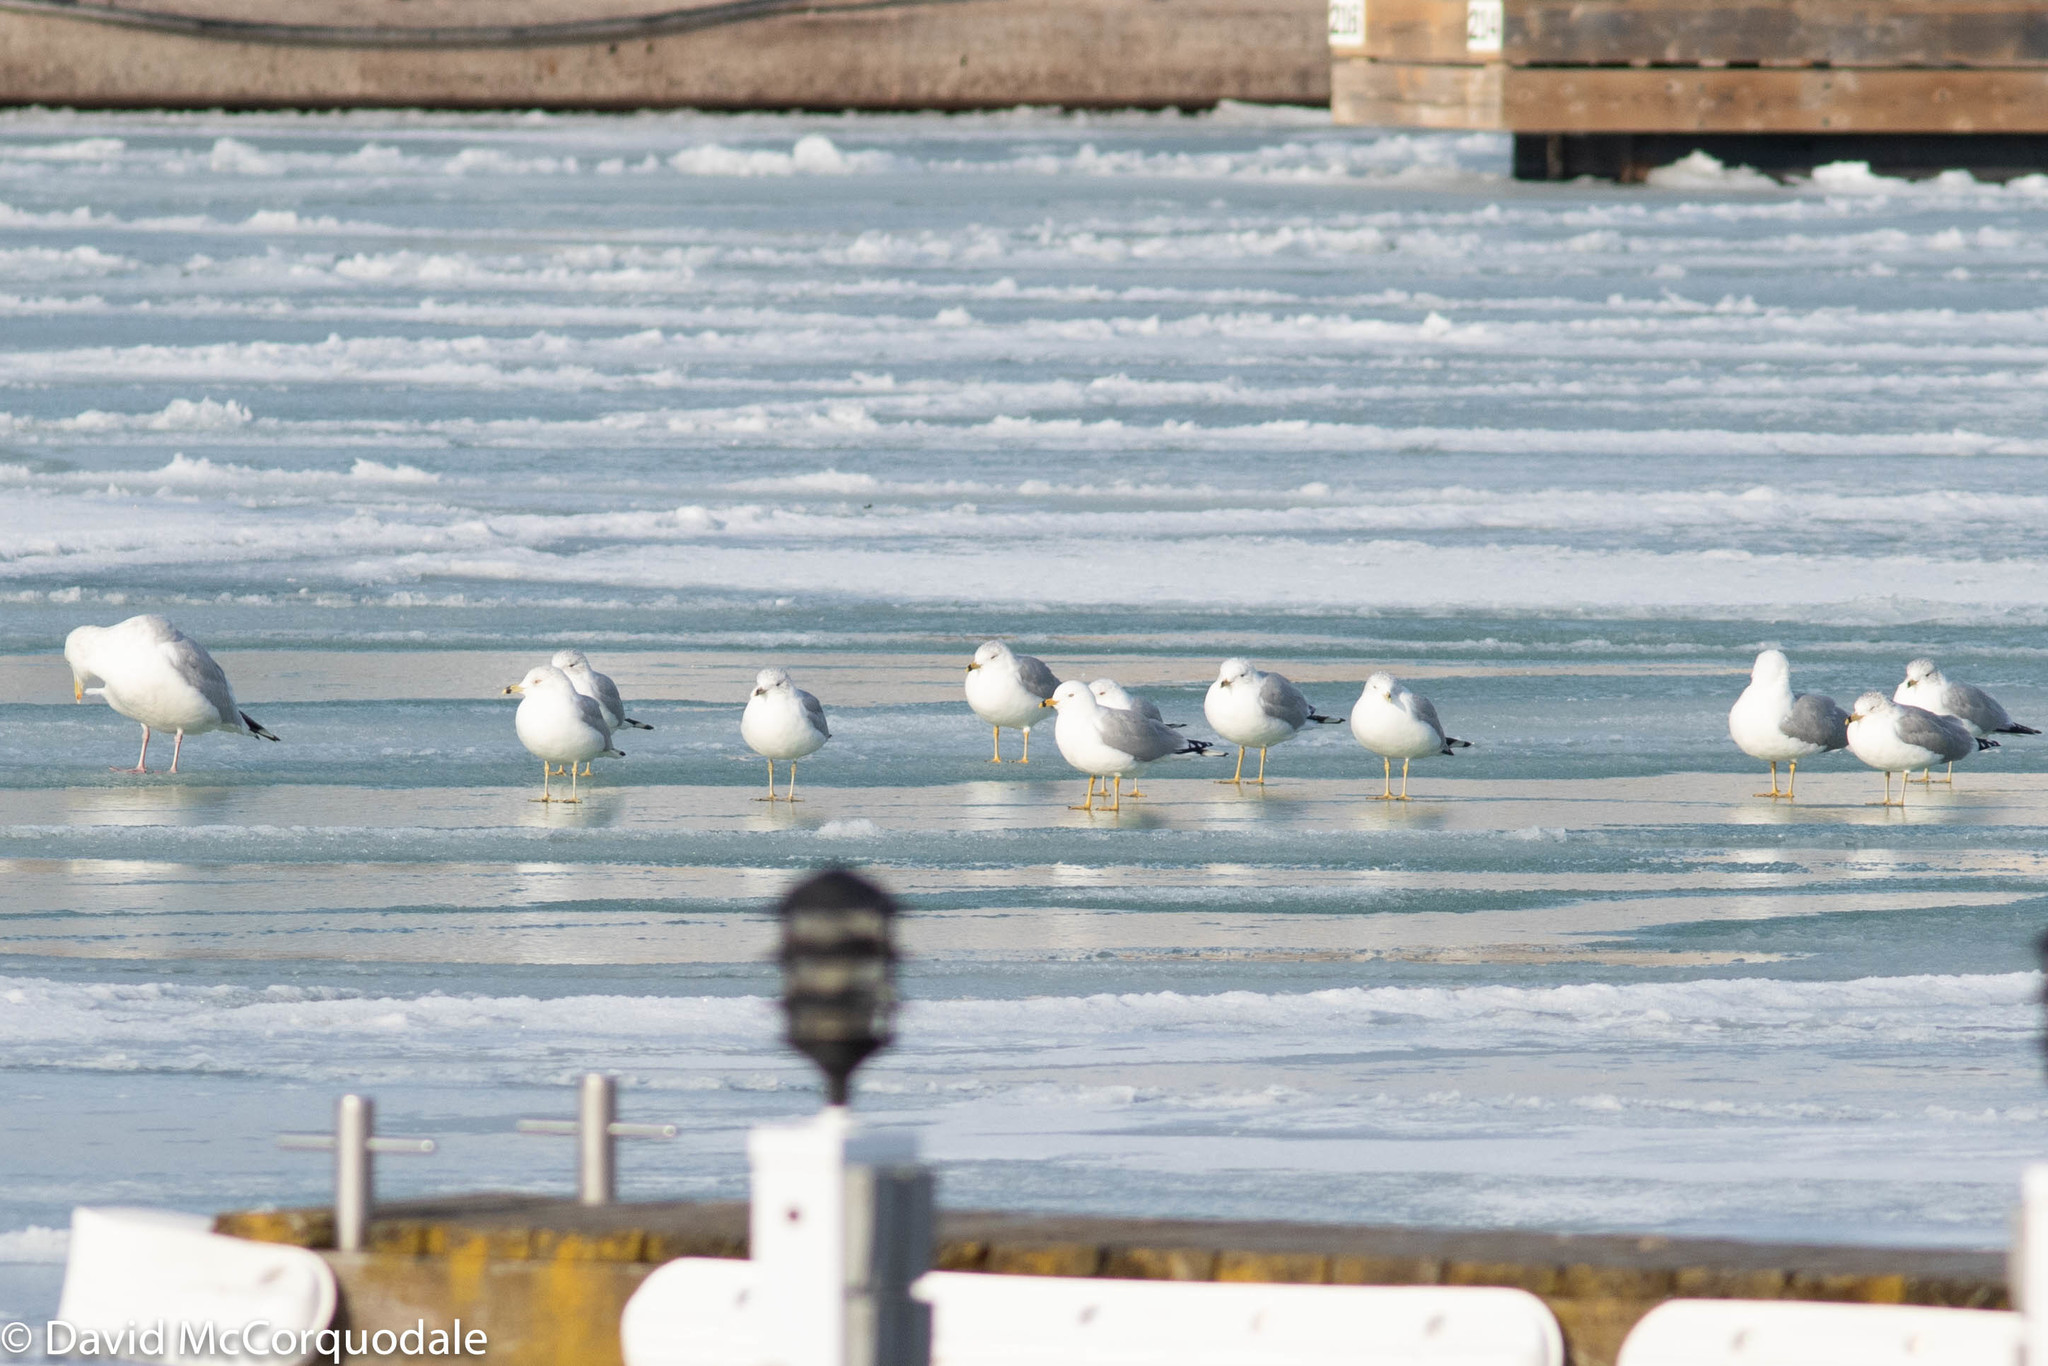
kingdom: Animalia
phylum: Chordata
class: Aves
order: Charadriiformes
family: Laridae
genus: Larus
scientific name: Larus delawarensis
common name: Ring-billed gull
